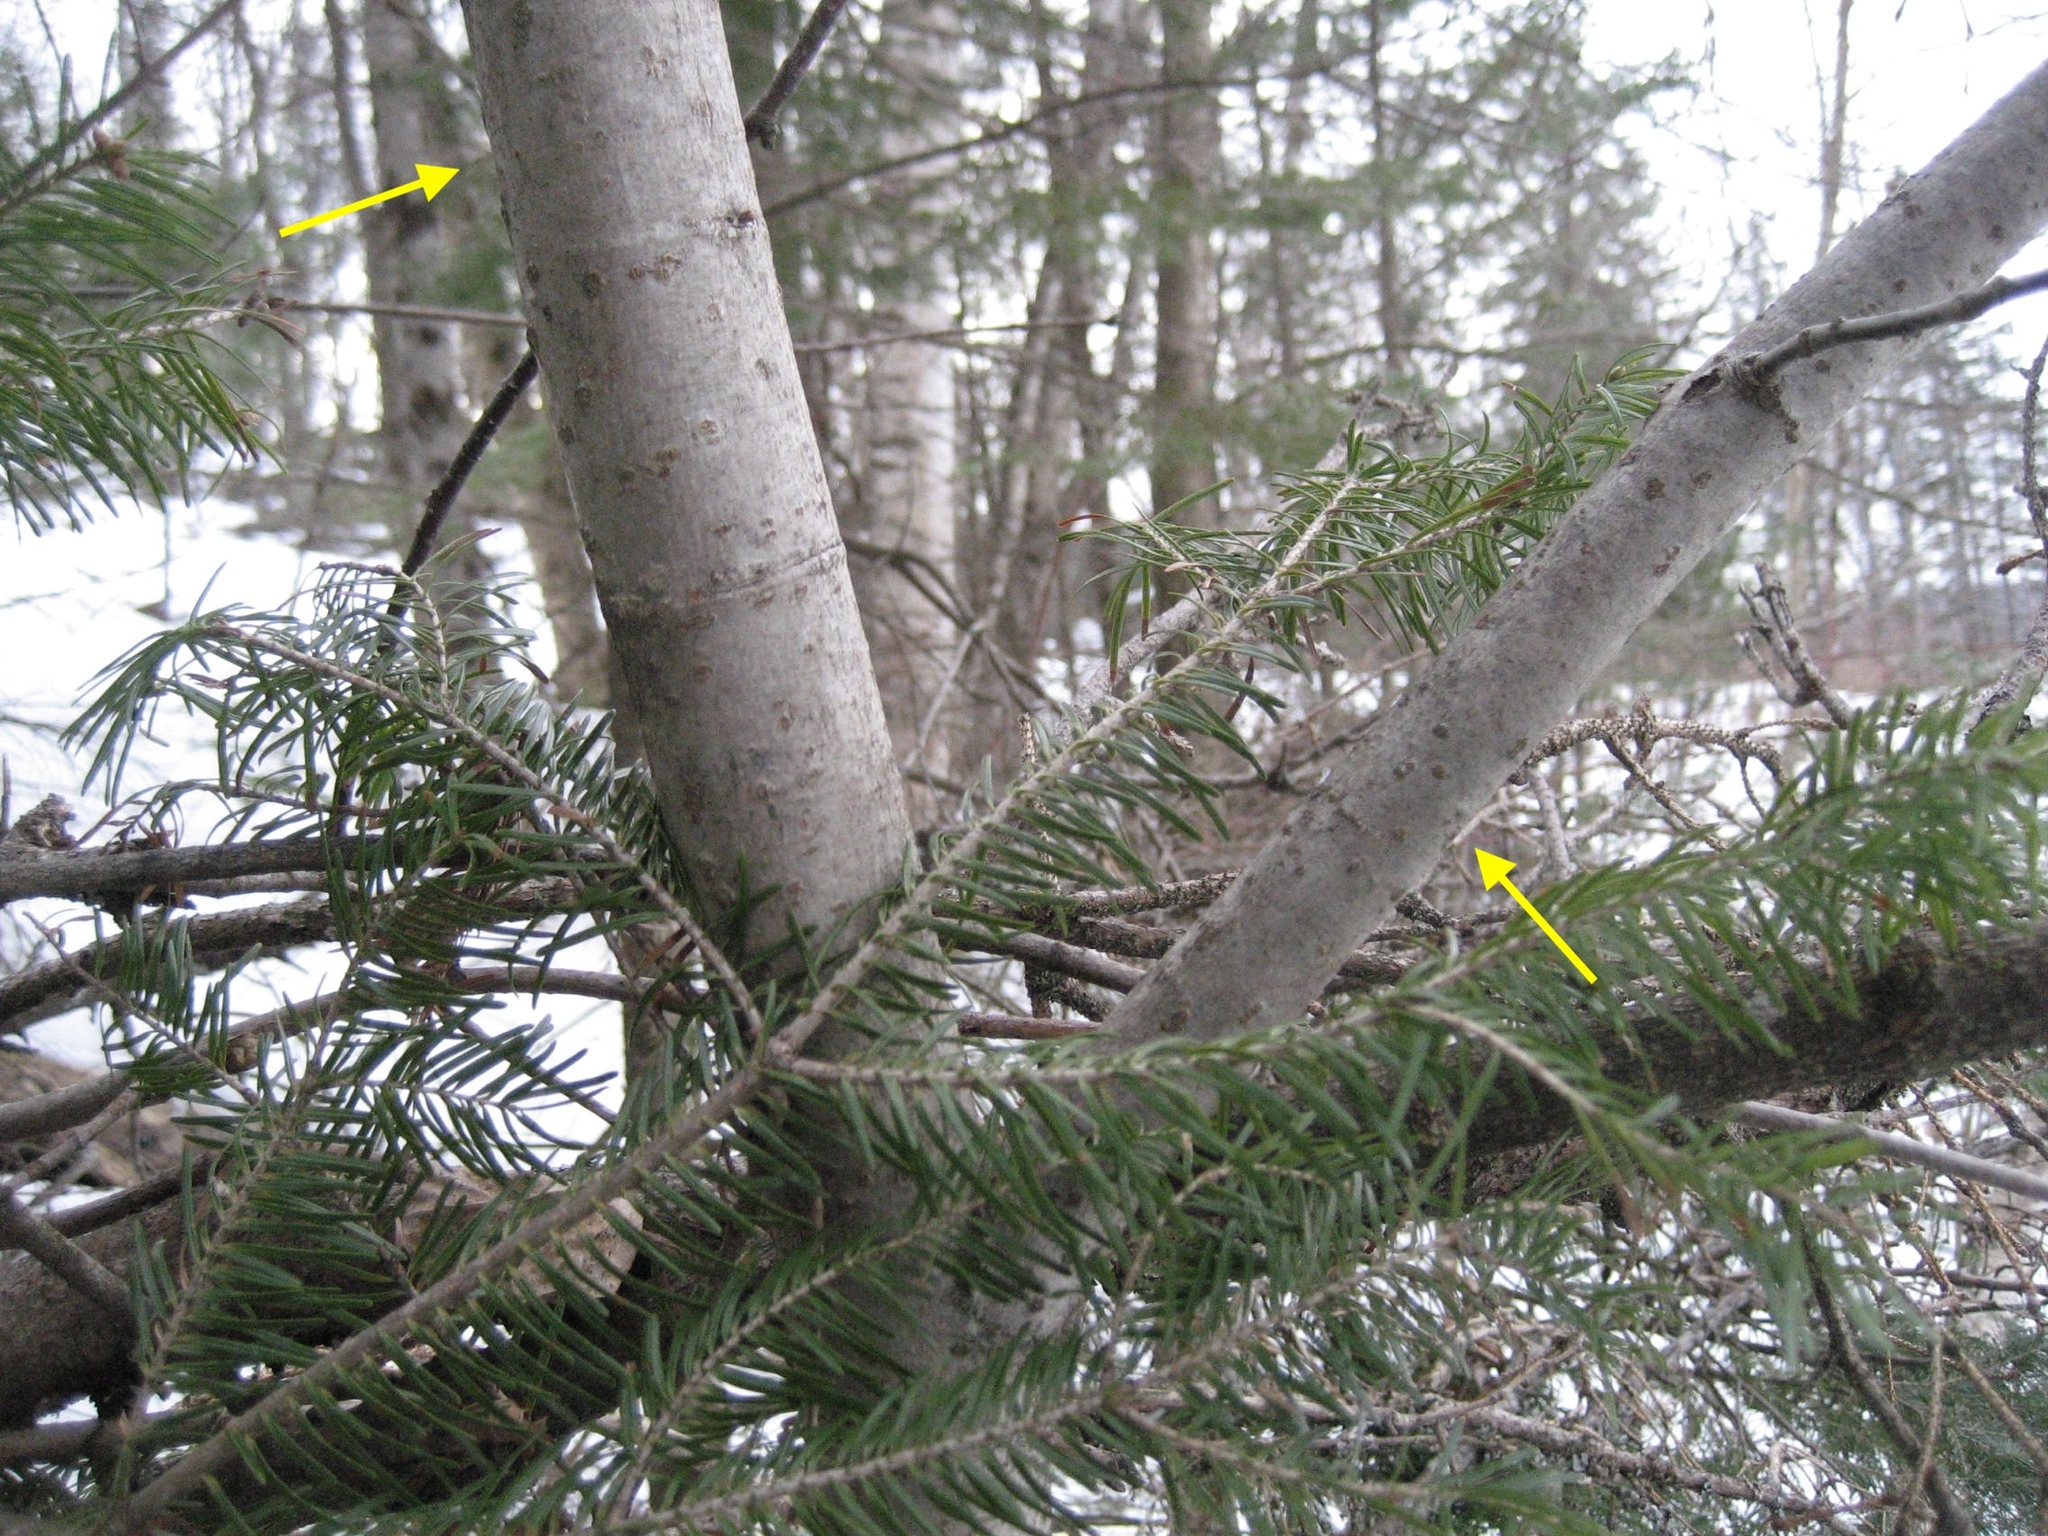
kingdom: Plantae
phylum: Tracheophyta
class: Magnoliopsida
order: Malvales
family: Malvaceae
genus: Tilia
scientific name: Tilia americana
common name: Basswood
